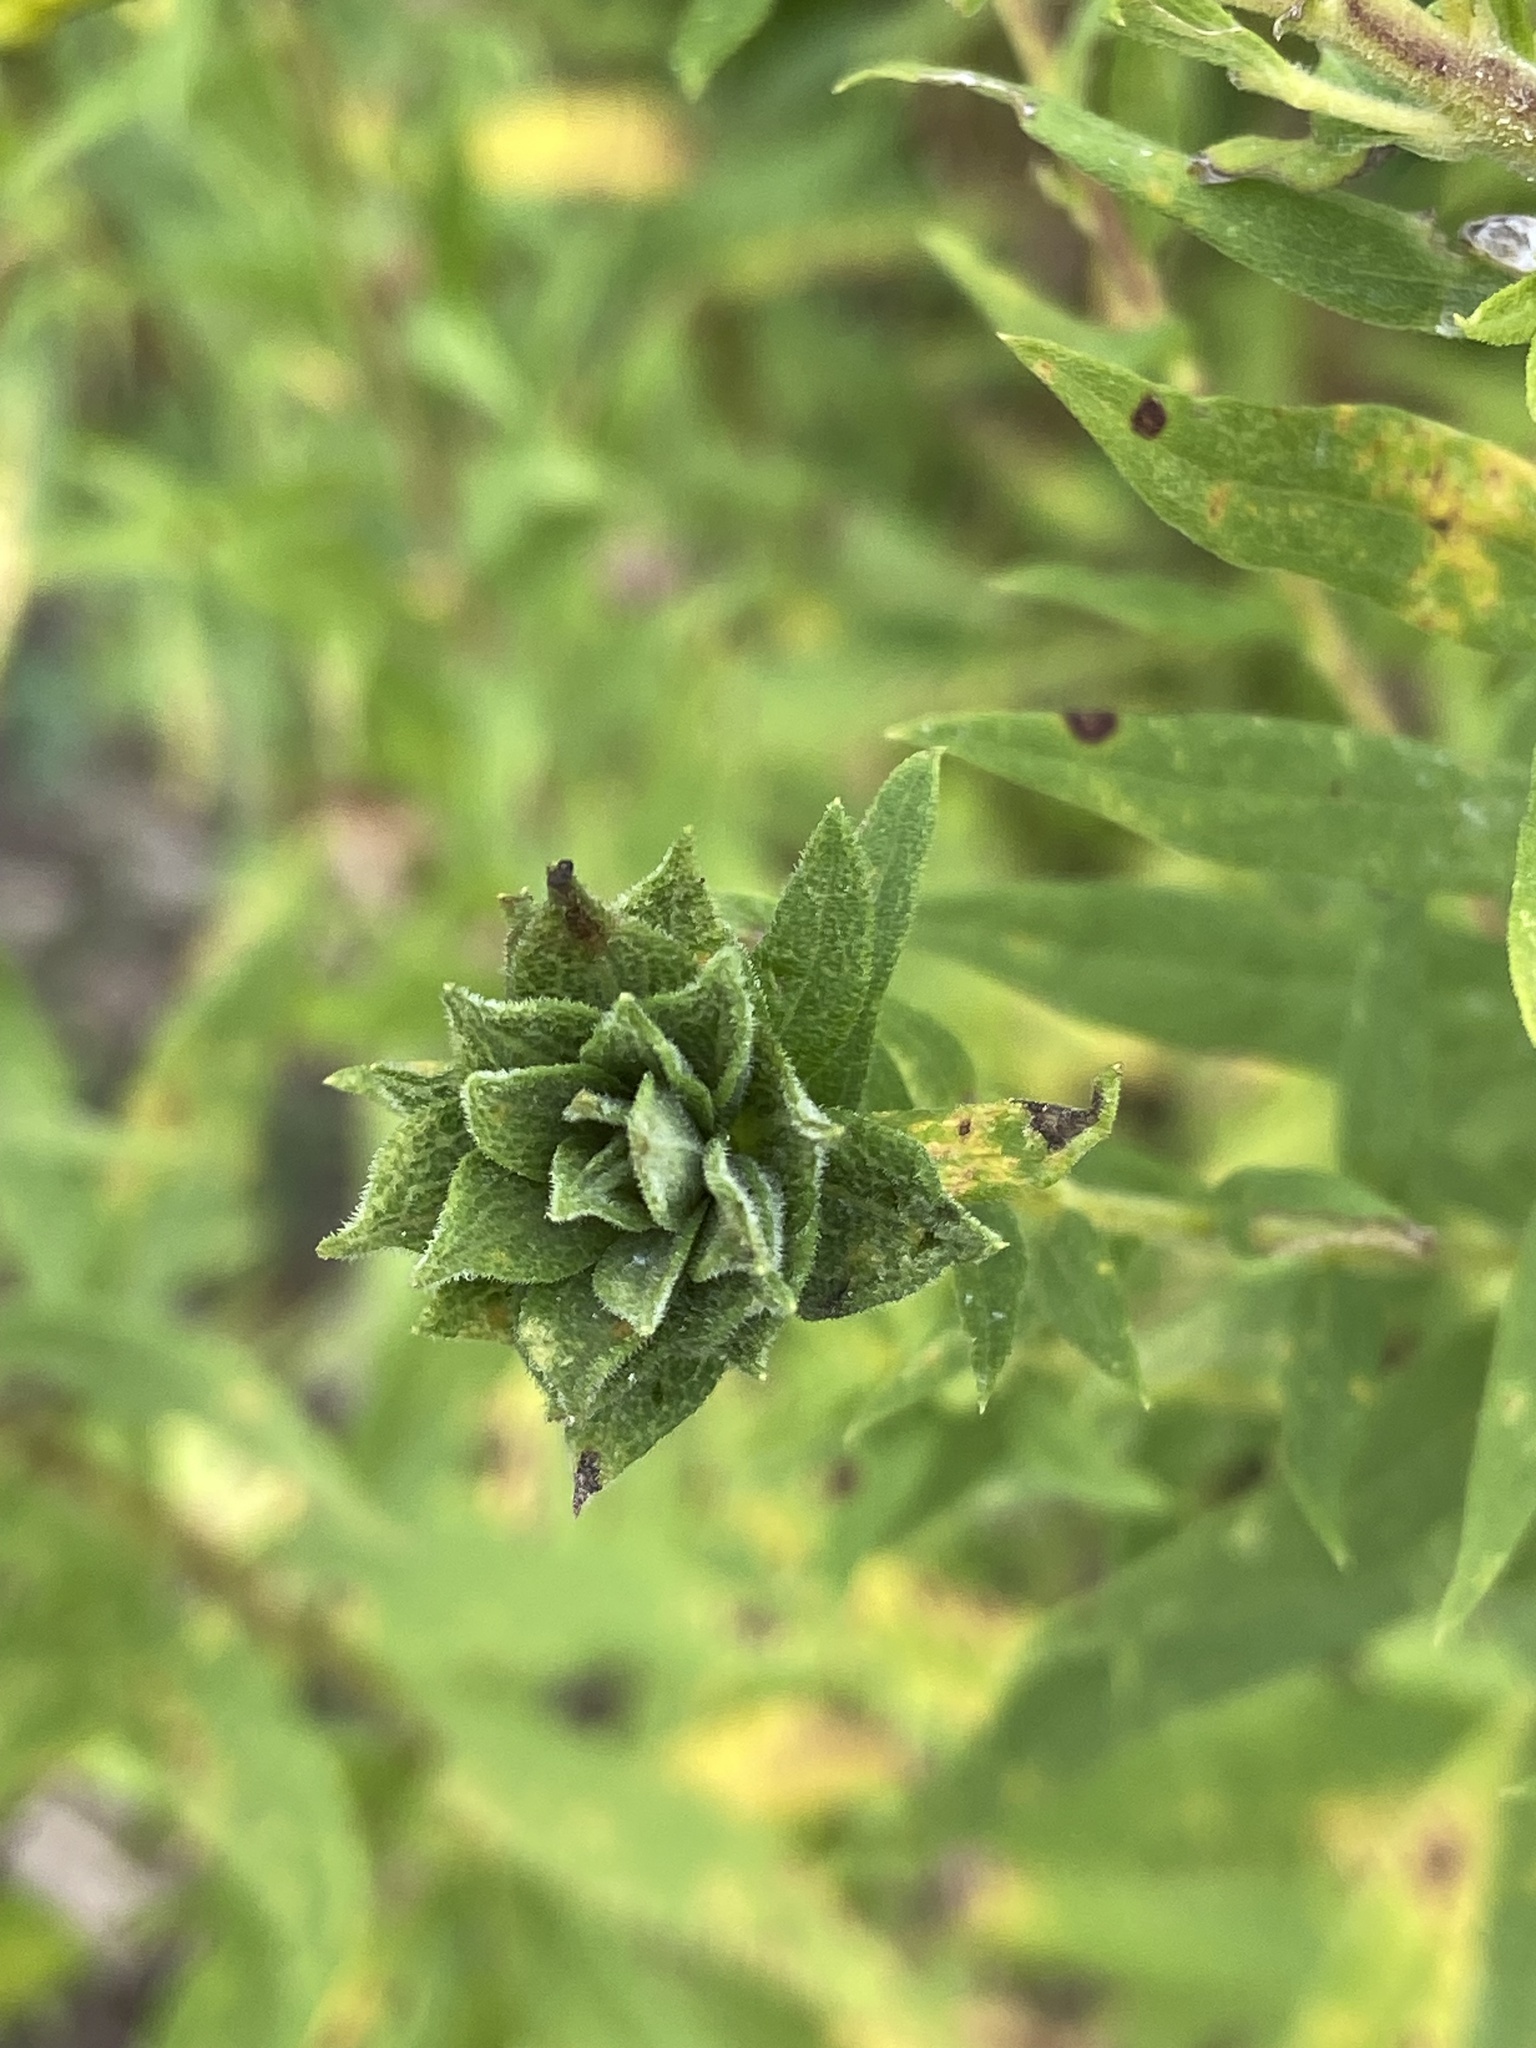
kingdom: Animalia
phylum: Arthropoda
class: Insecta
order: Diptera
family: Cecidomyiidae
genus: Rhopalomyia
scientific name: Rhopalomyia solidaginis
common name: Goldenrod bunch gall midge
